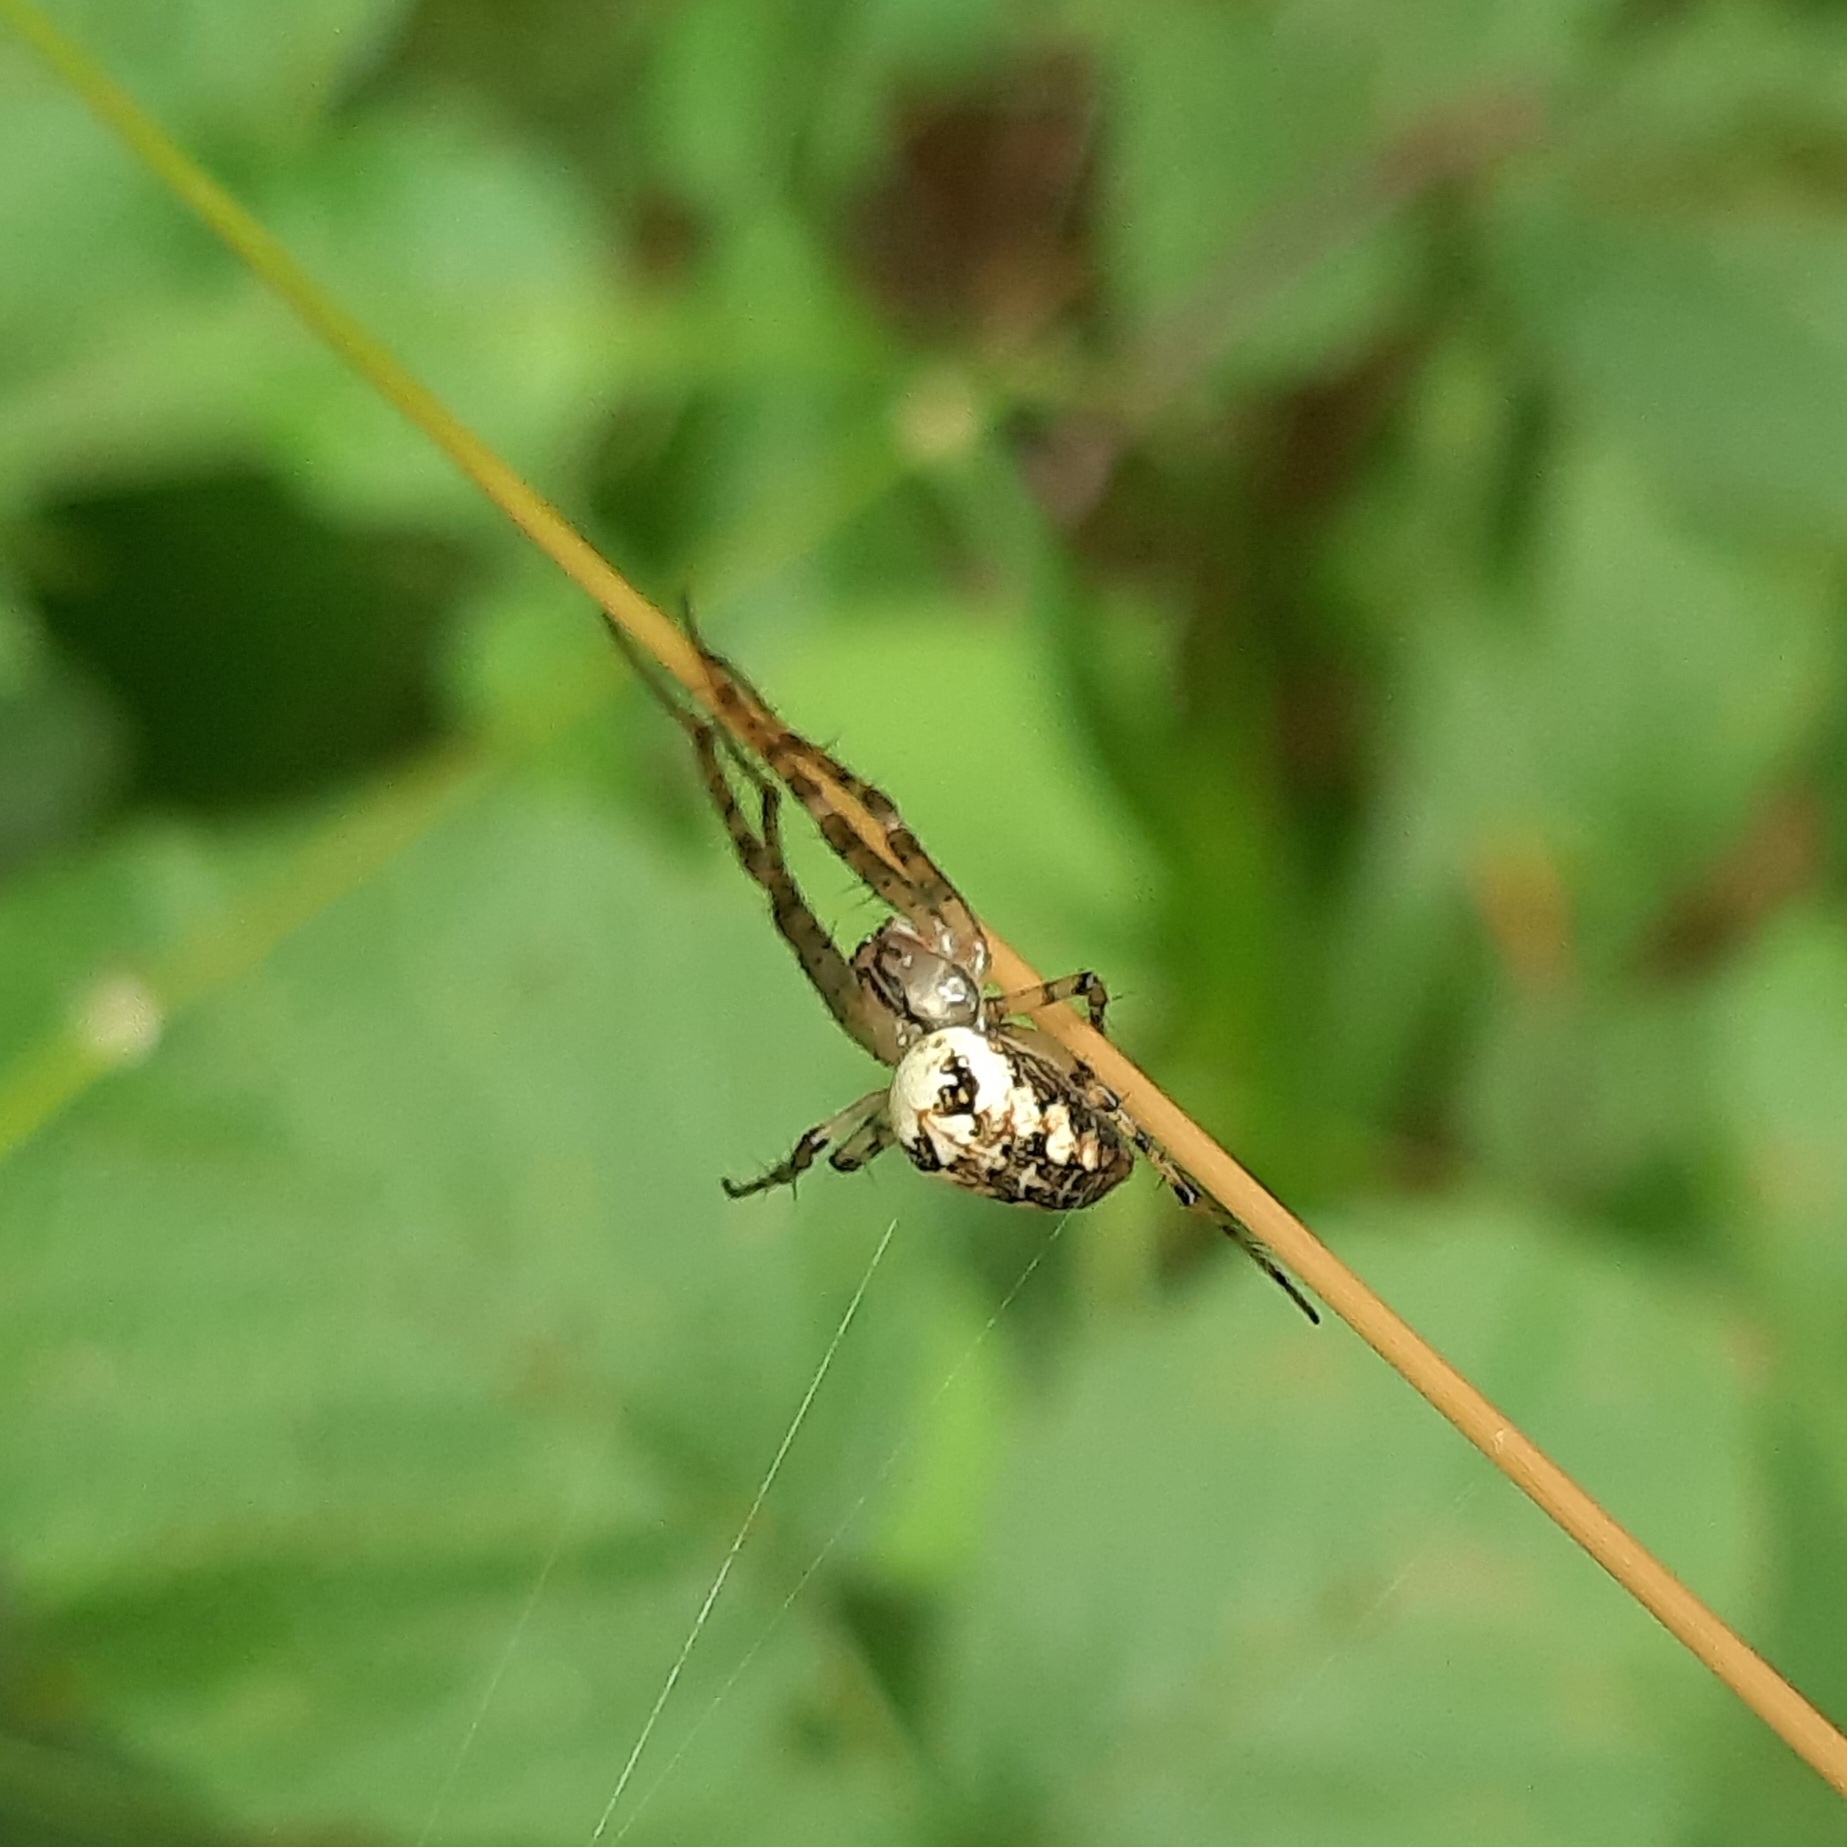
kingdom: Animalia
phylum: Arthropoda
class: Arachnida
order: Araneae
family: Tetragnathidae
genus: Metellina
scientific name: Metellina
